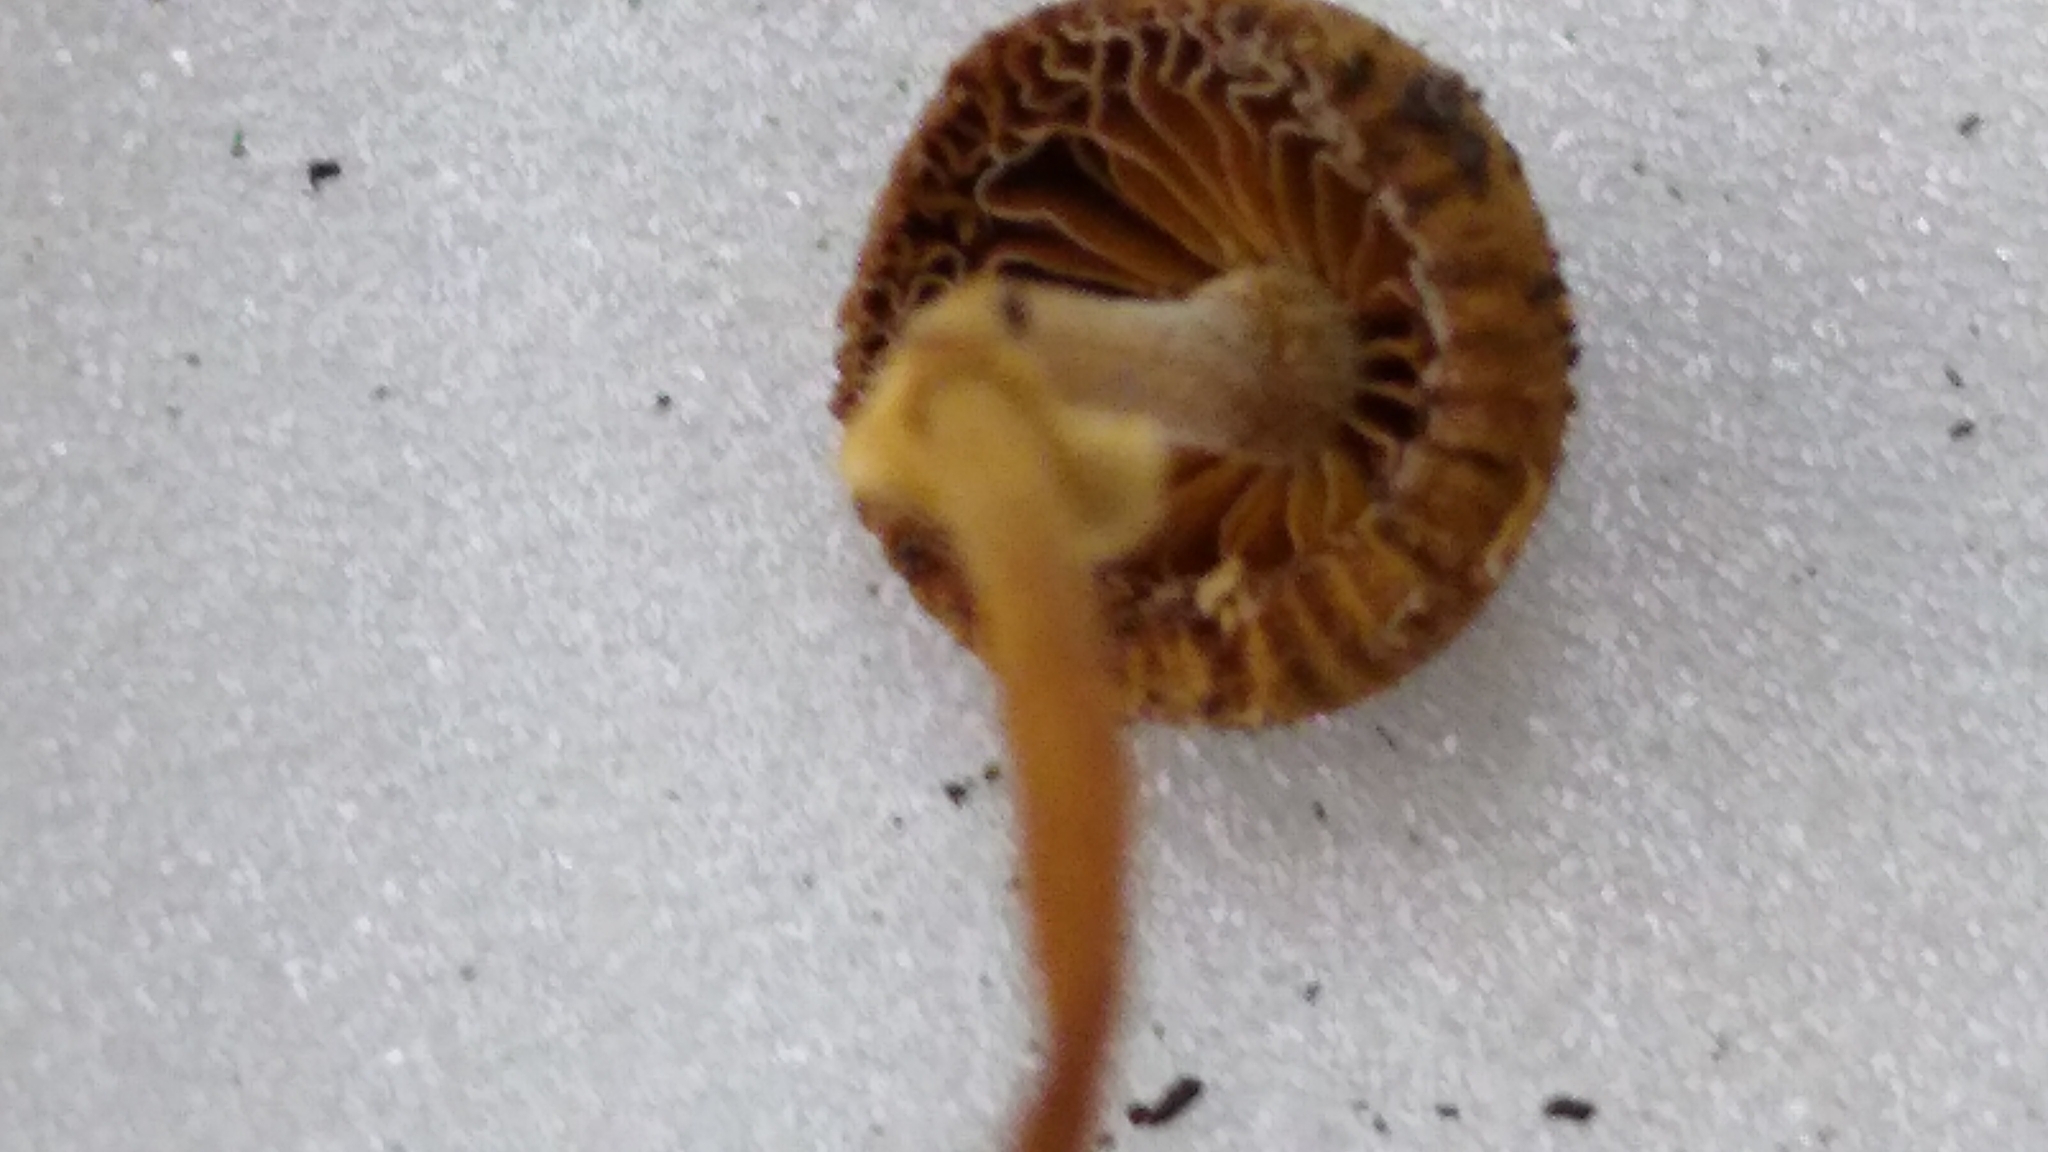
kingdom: Fungi
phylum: Basidiomycota
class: Agaricomycetes
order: Agaricales
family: Bolbitiaceae
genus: Conocybe
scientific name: Conocybe rugosa
